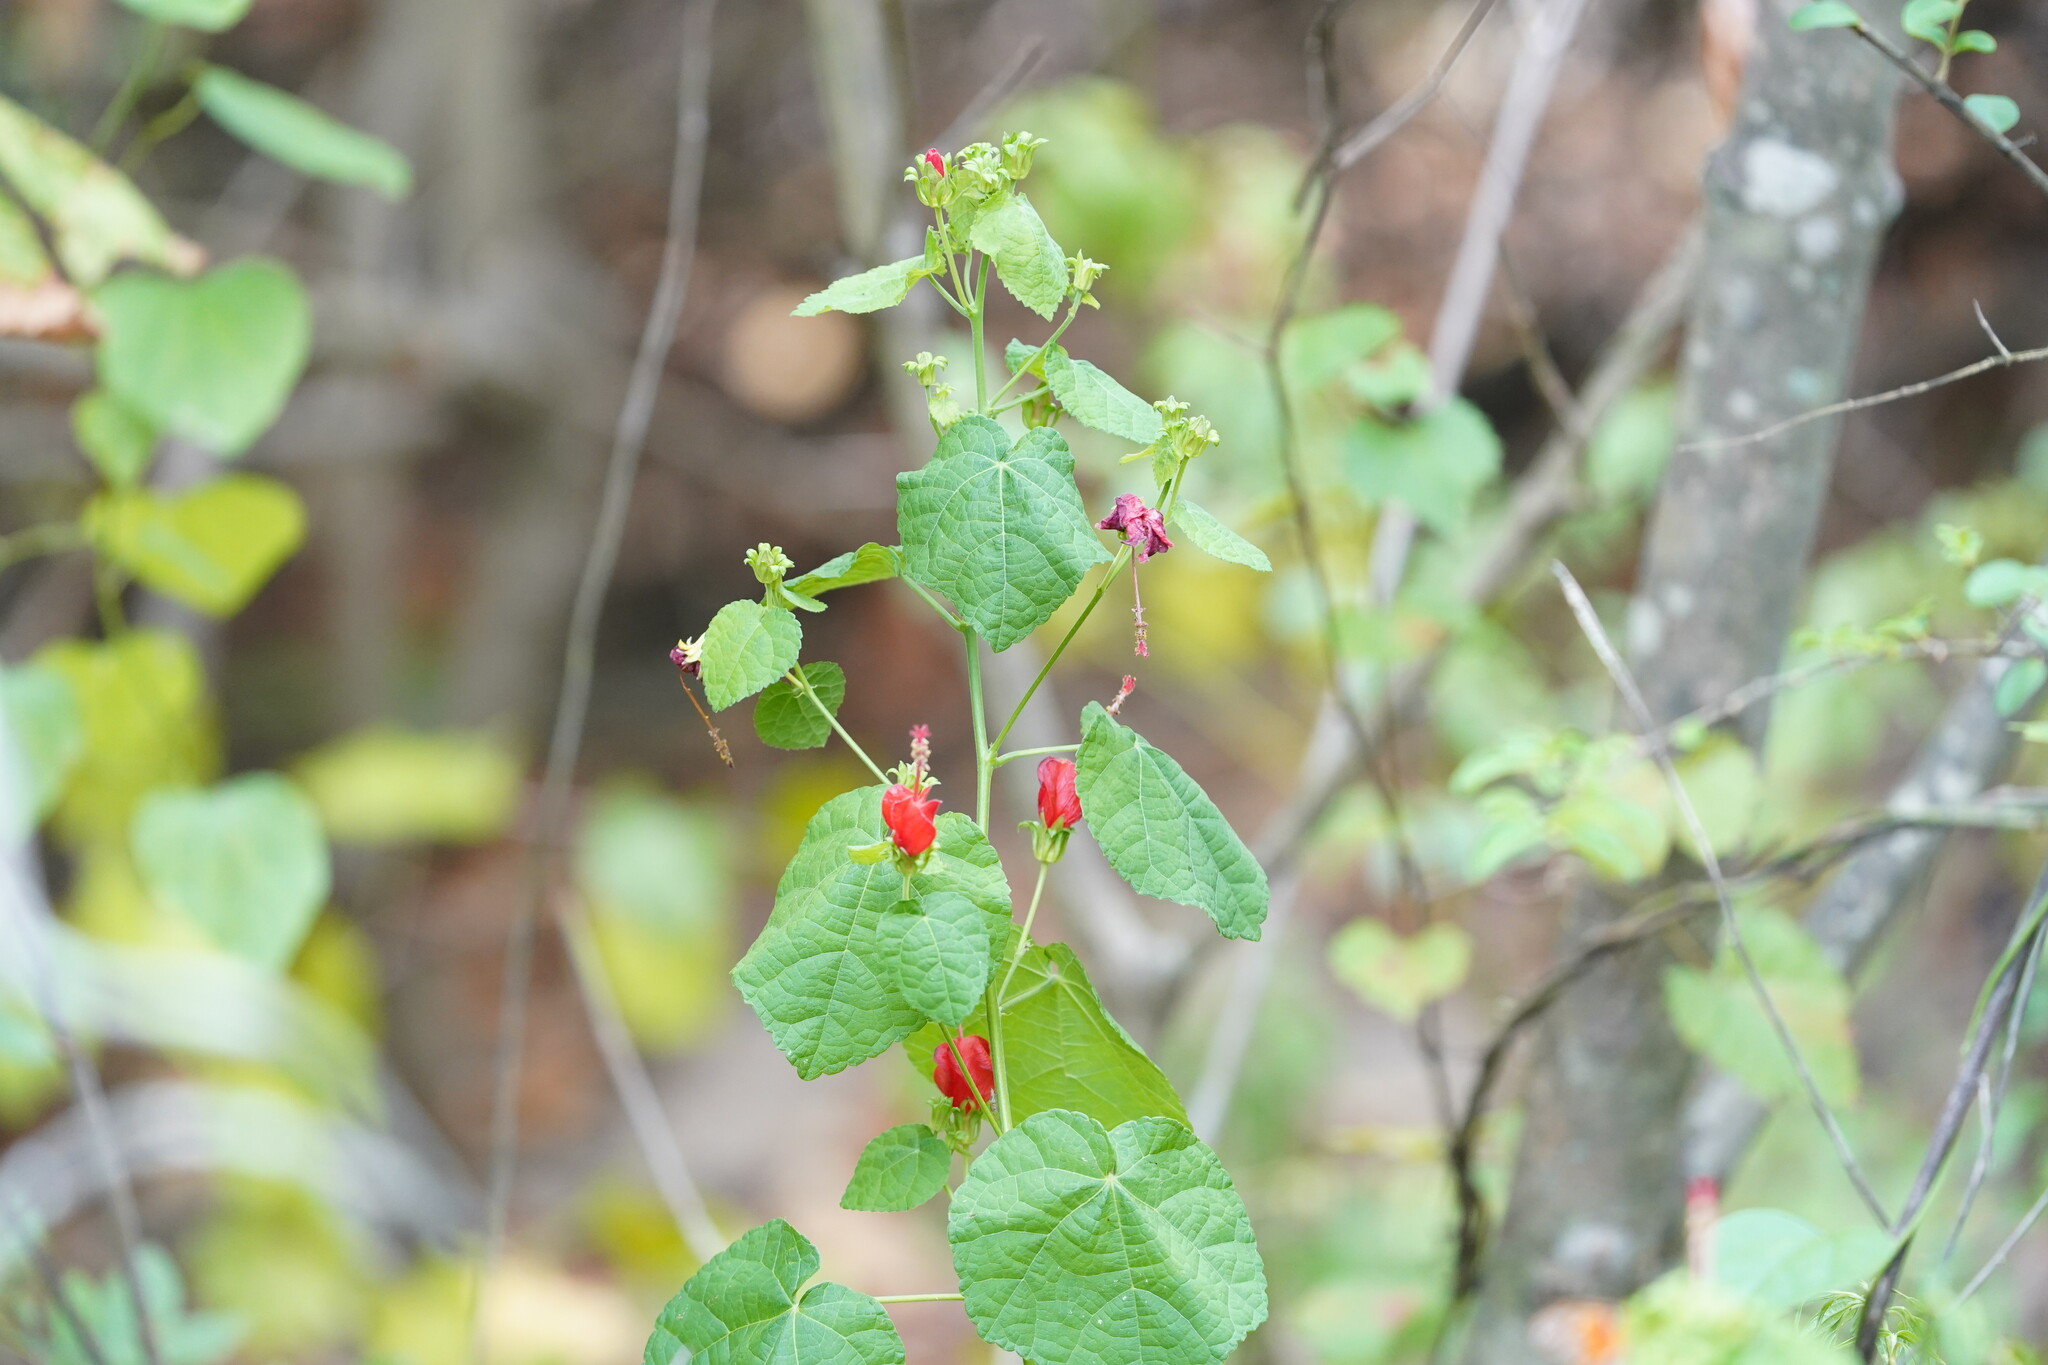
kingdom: Plantae
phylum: Tracheophyta
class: Magnoliopsida
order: Malvales
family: Malvaceae
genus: Malvaviscus
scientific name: Malvaviscus arboreus
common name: Wax mallow
